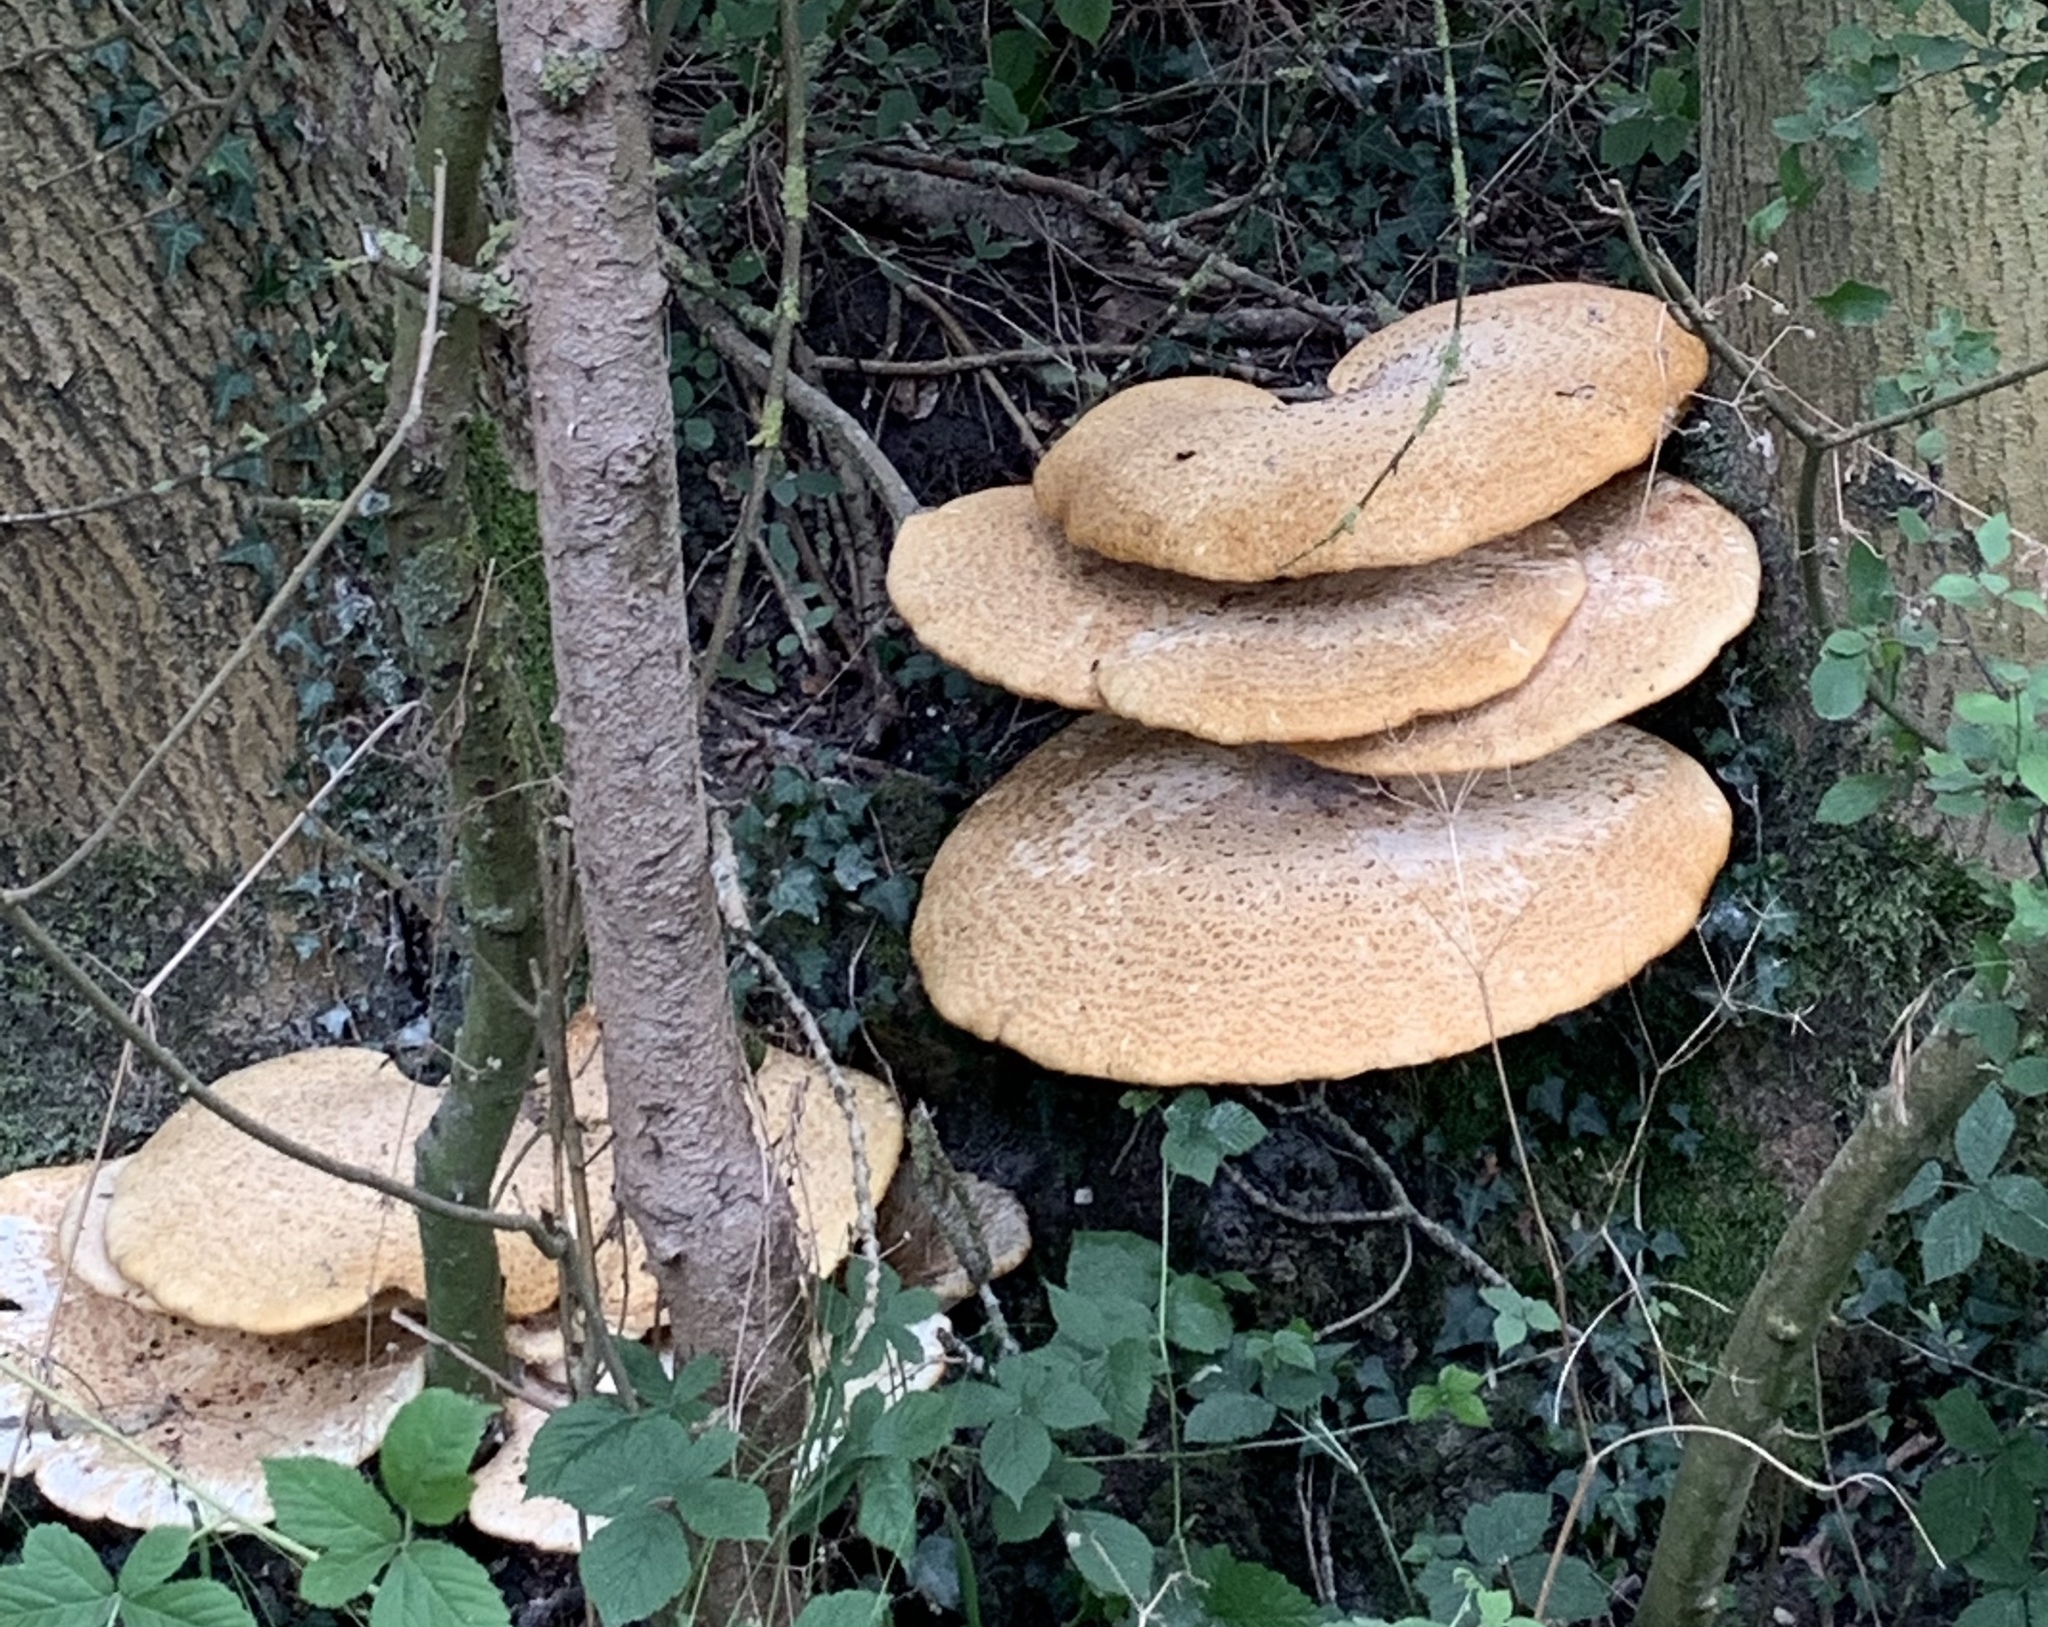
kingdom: Fungi
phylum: Basidiomycota
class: Agaricomycetes
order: Polyporales
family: Polyporaceae
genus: Cerioporus
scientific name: Cerioporus squamosus
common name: Dryad's saddle
